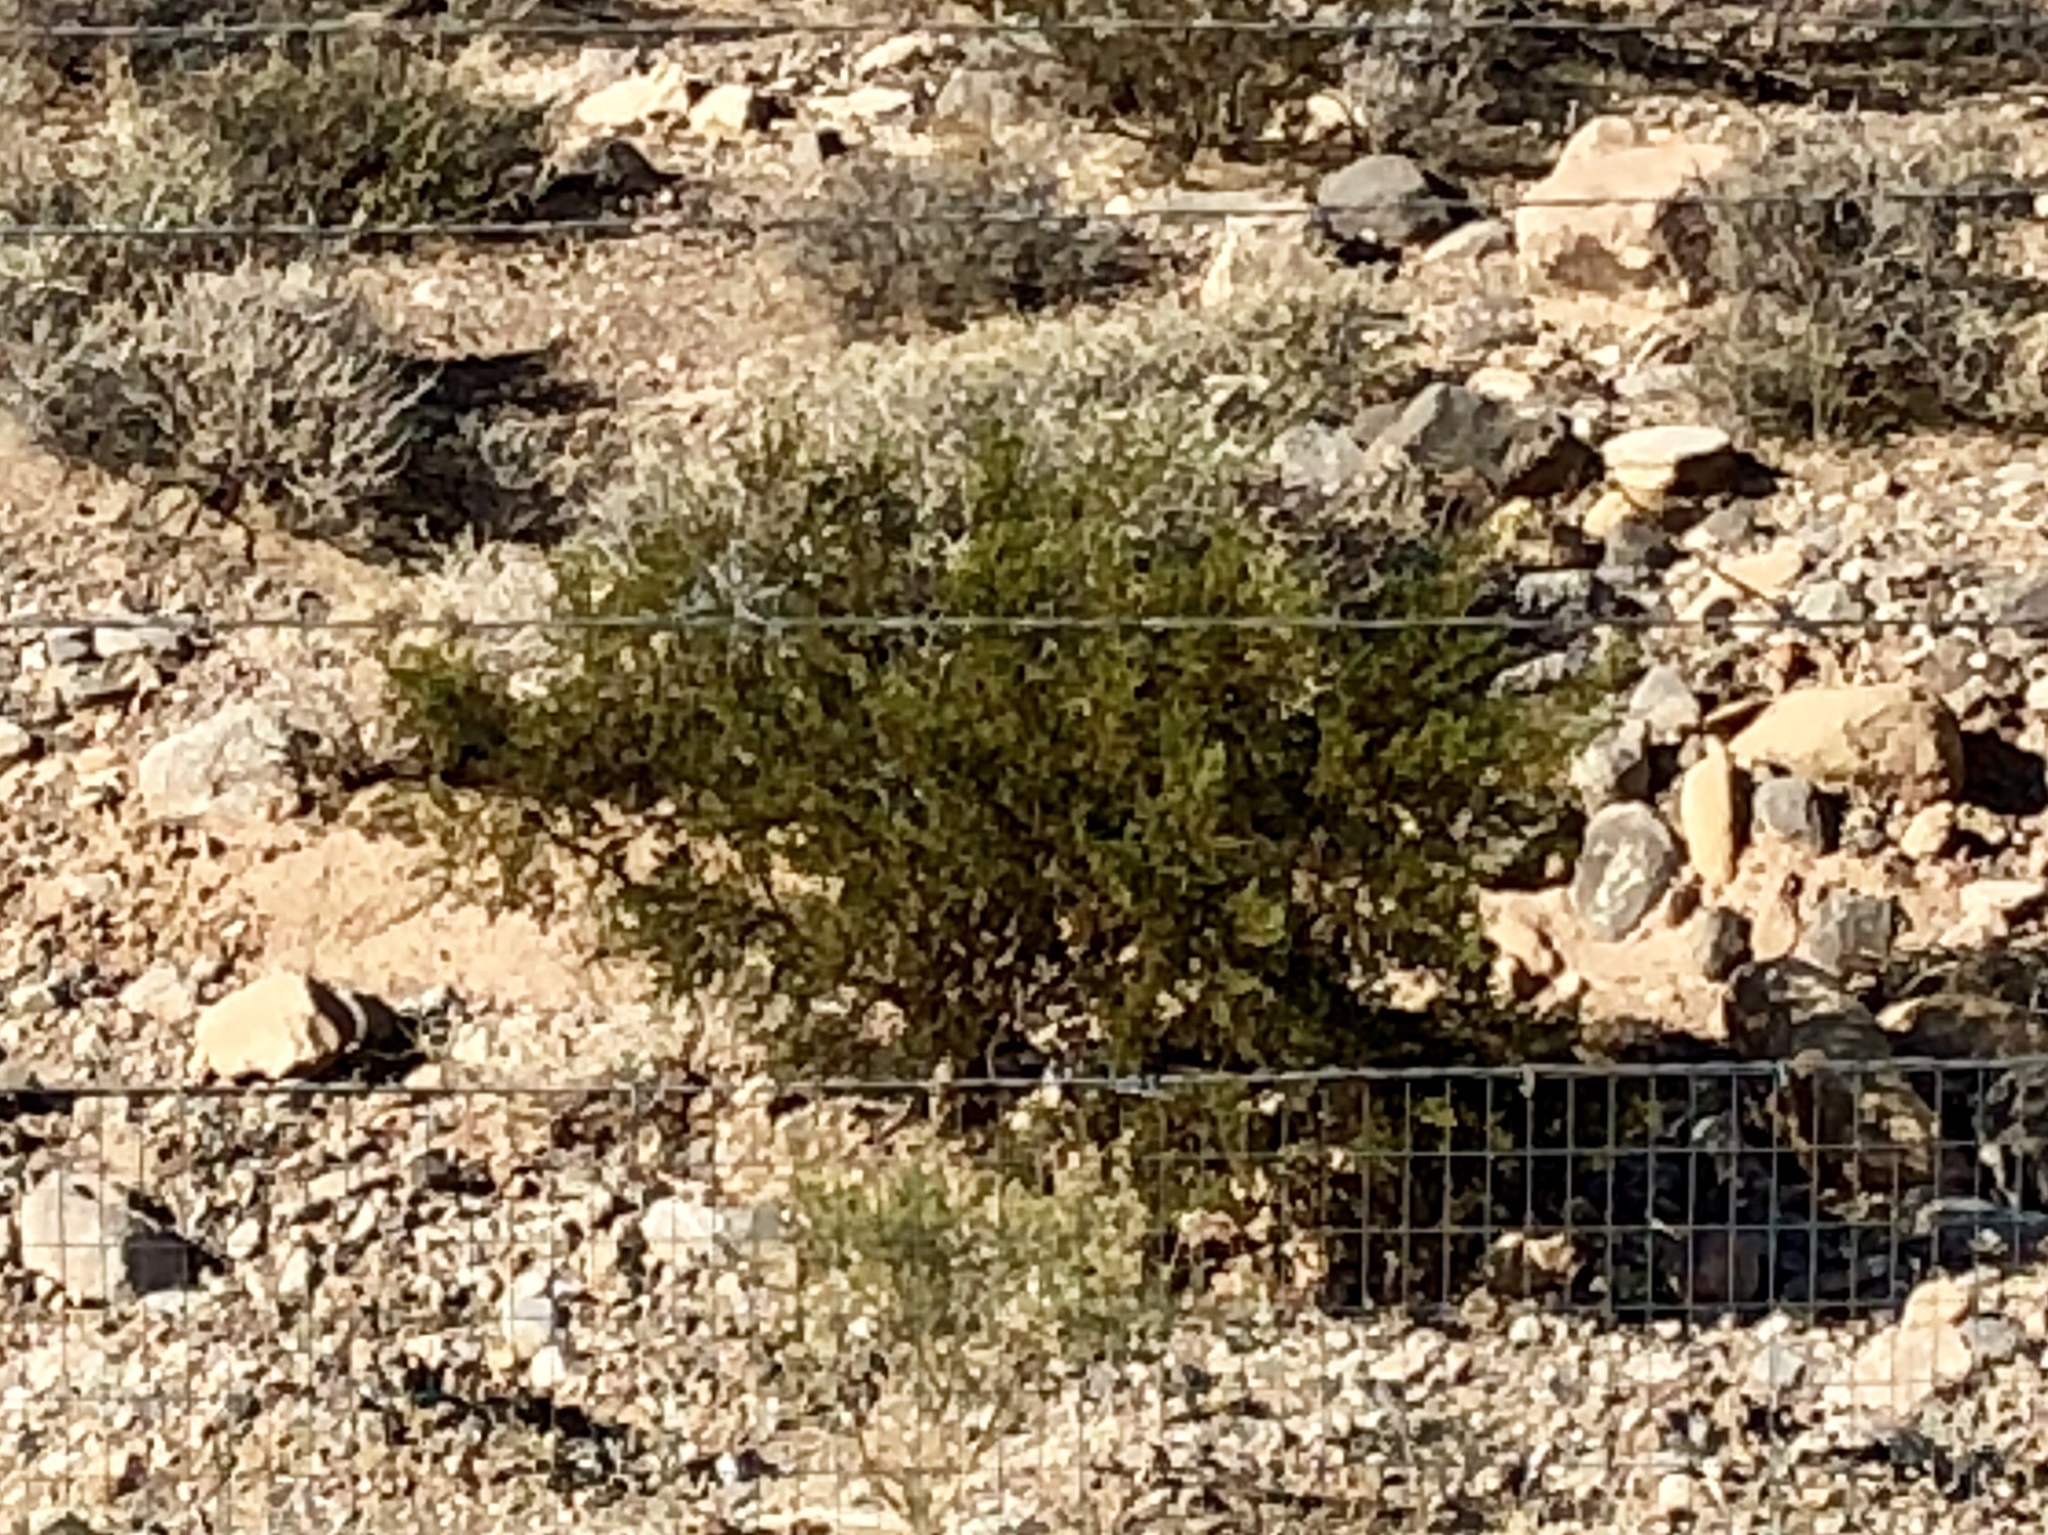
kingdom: Plantae
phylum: Tracheophyta
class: Magnoliopsida
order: Zygophyllales
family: Zygophyllaceae
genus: Larrea
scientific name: Larrea tridentata
